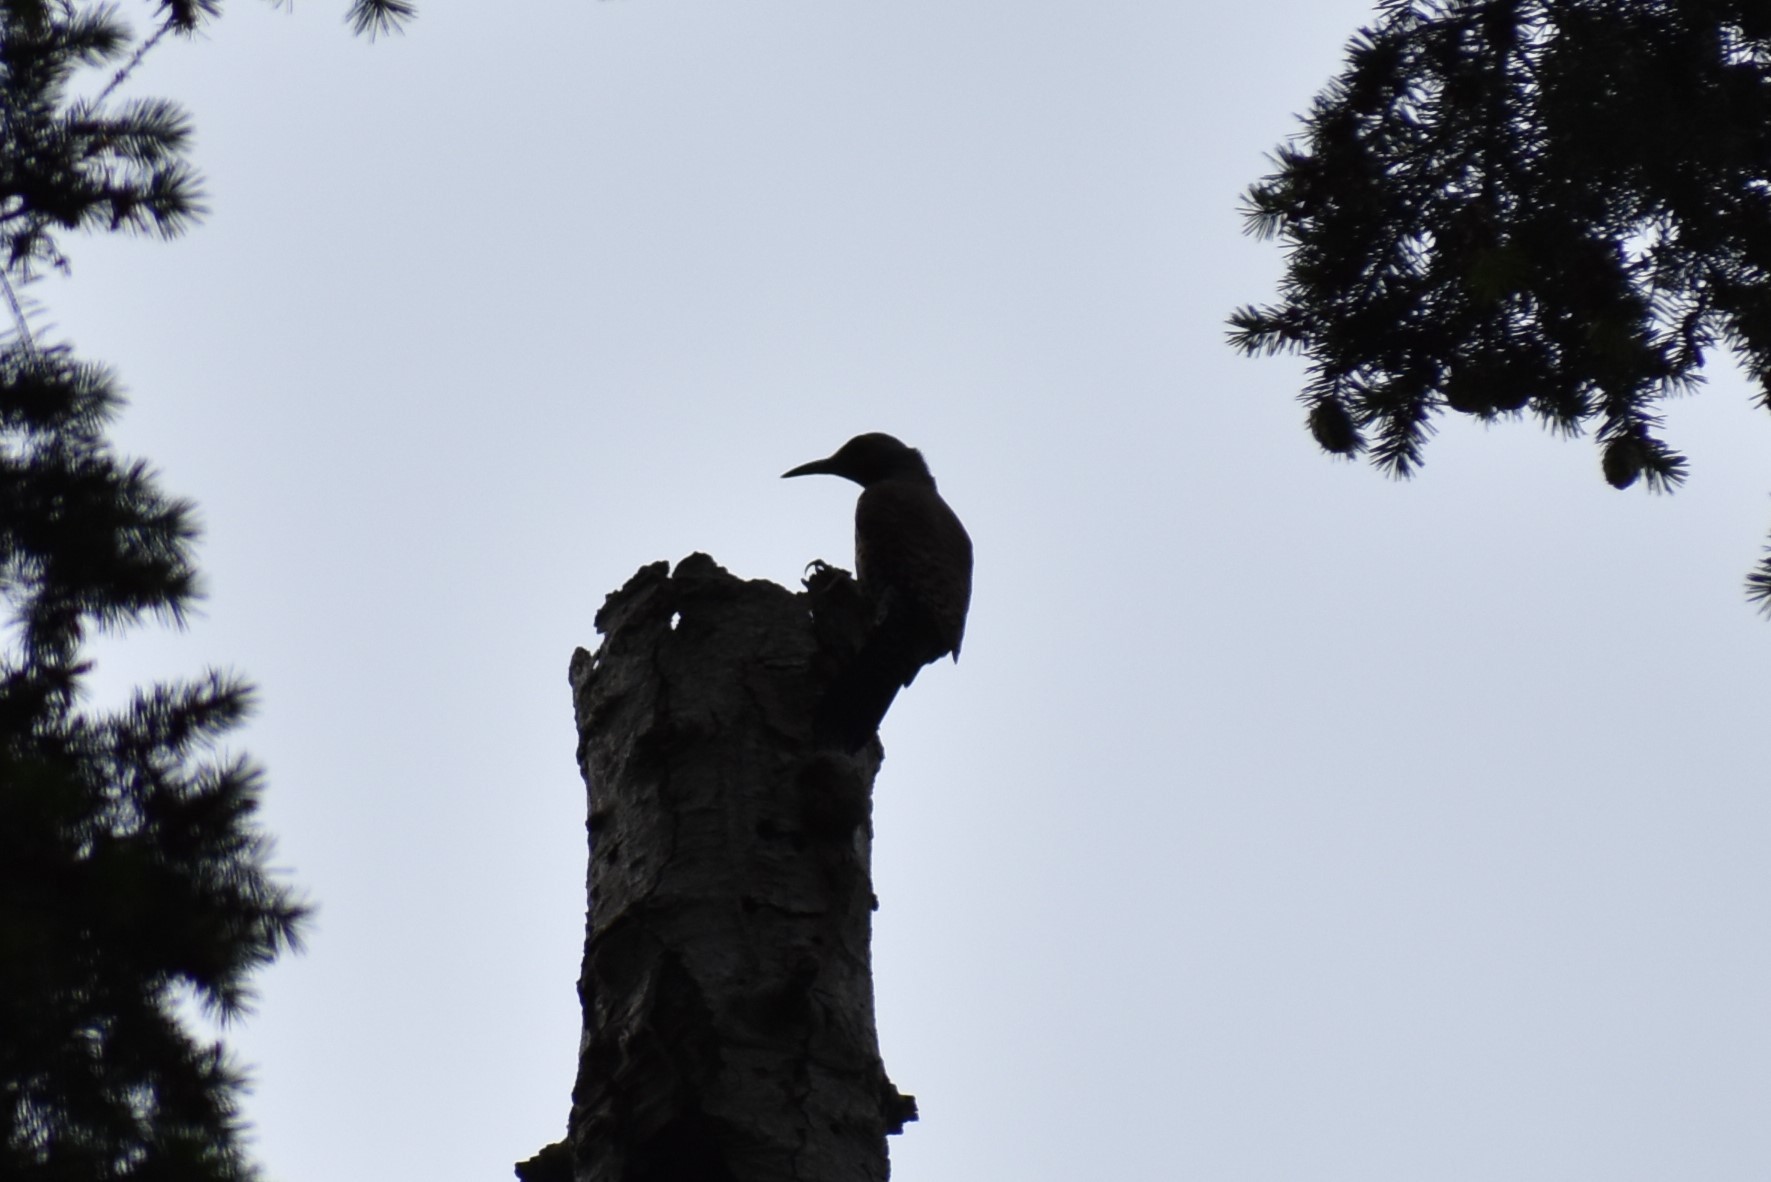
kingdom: Animalia
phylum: Chordata
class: Aves
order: Piciformes
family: Picidae
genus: Colaptes
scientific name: Colaptes auratus
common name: Northern flicker
